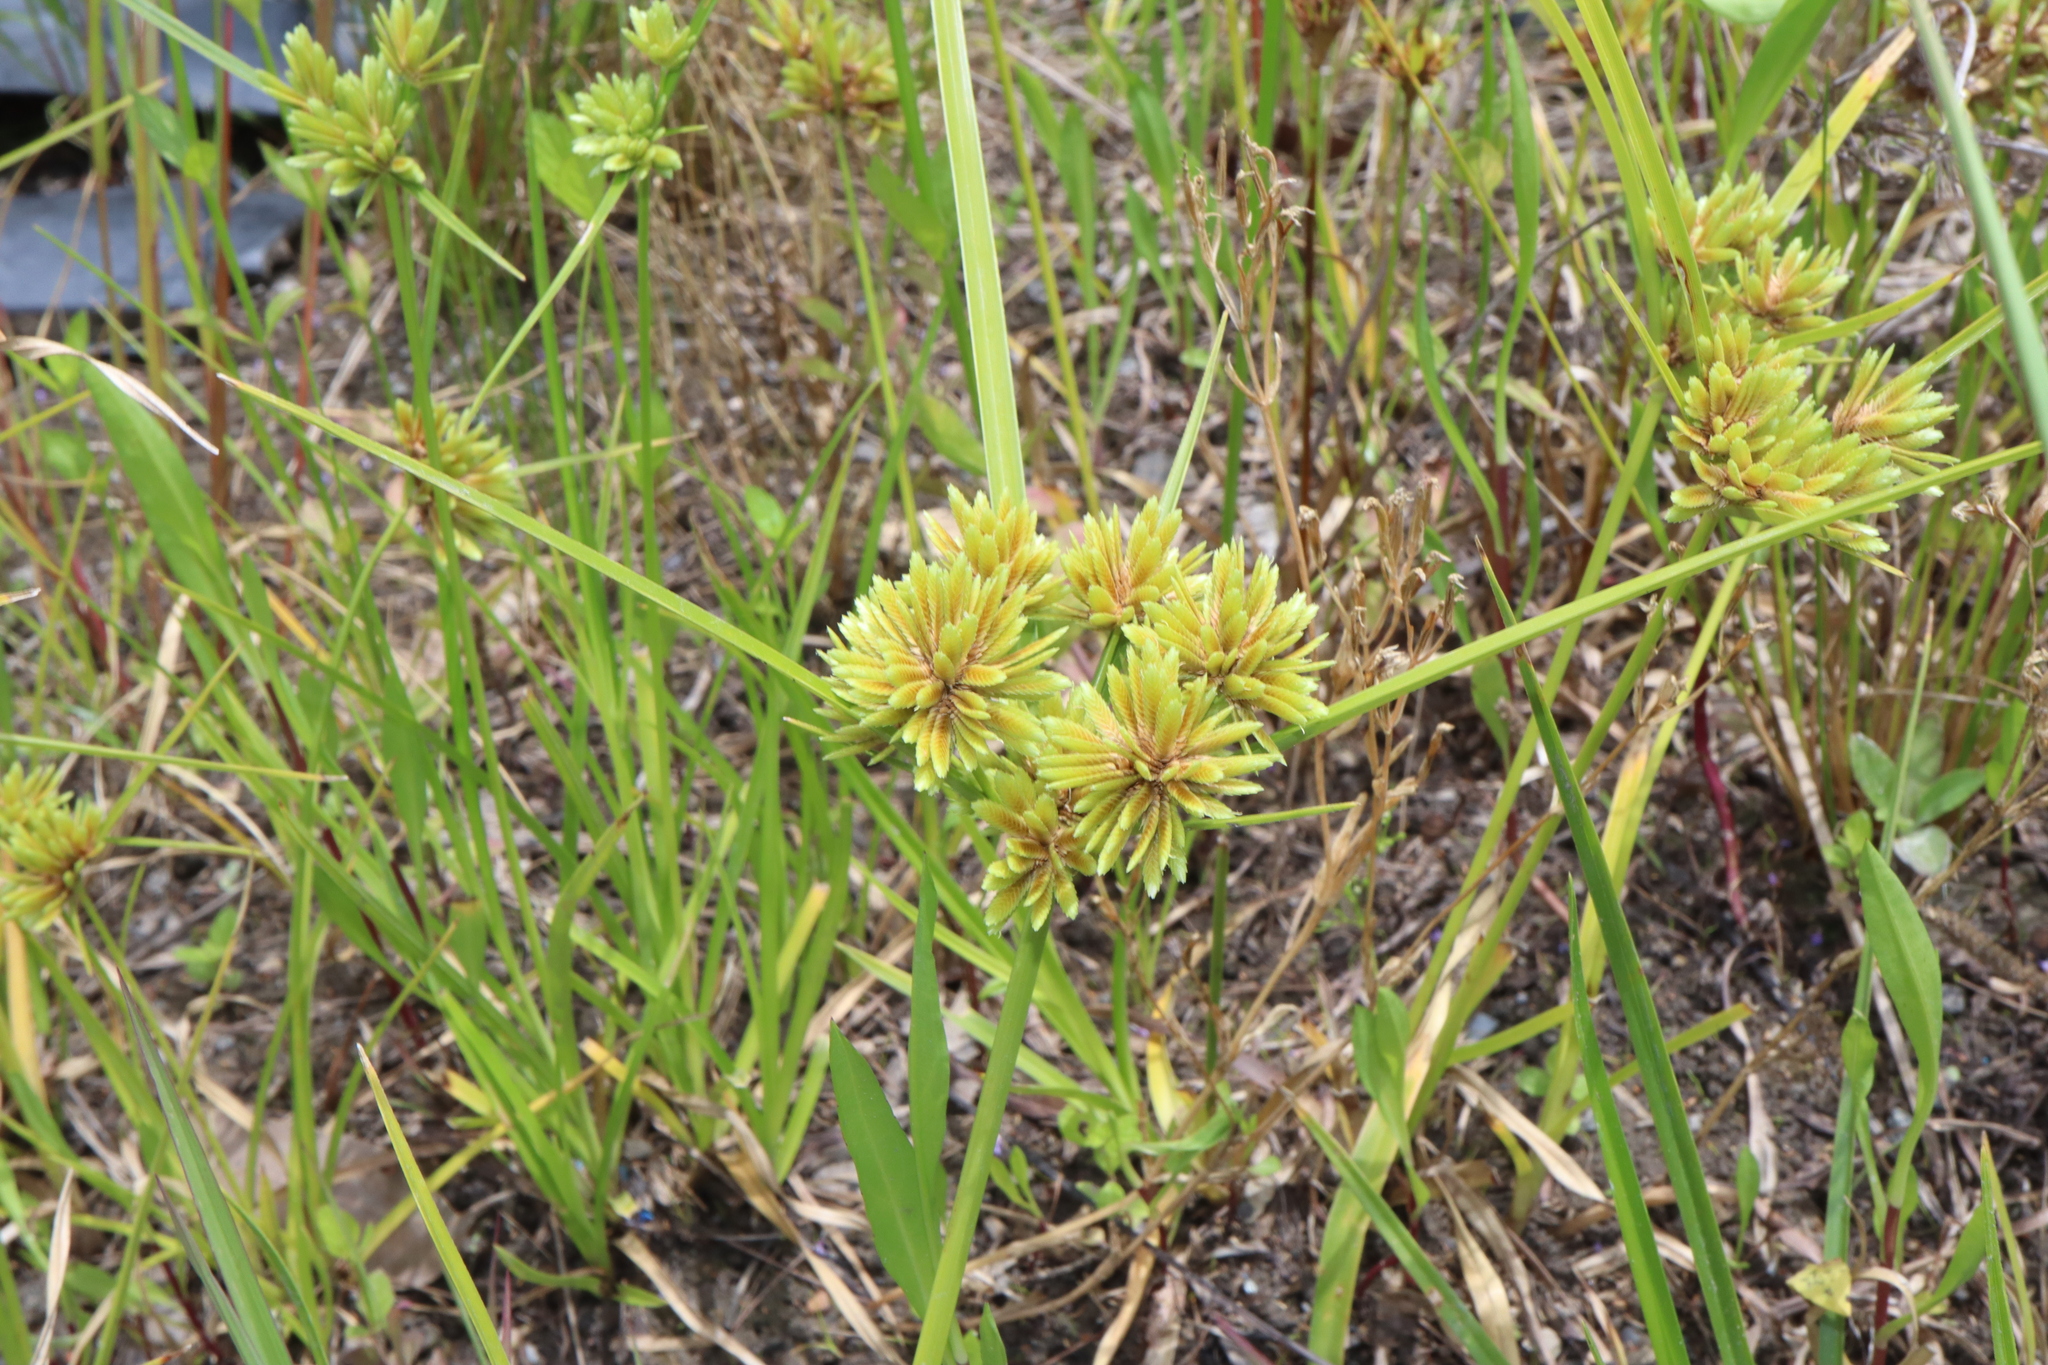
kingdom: Plantae
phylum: Tracheophyta
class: Liliopsida
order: Poales
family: Cyperaceae
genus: Cyperus
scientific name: Cyperus eragrostis
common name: Tall flatsedge
